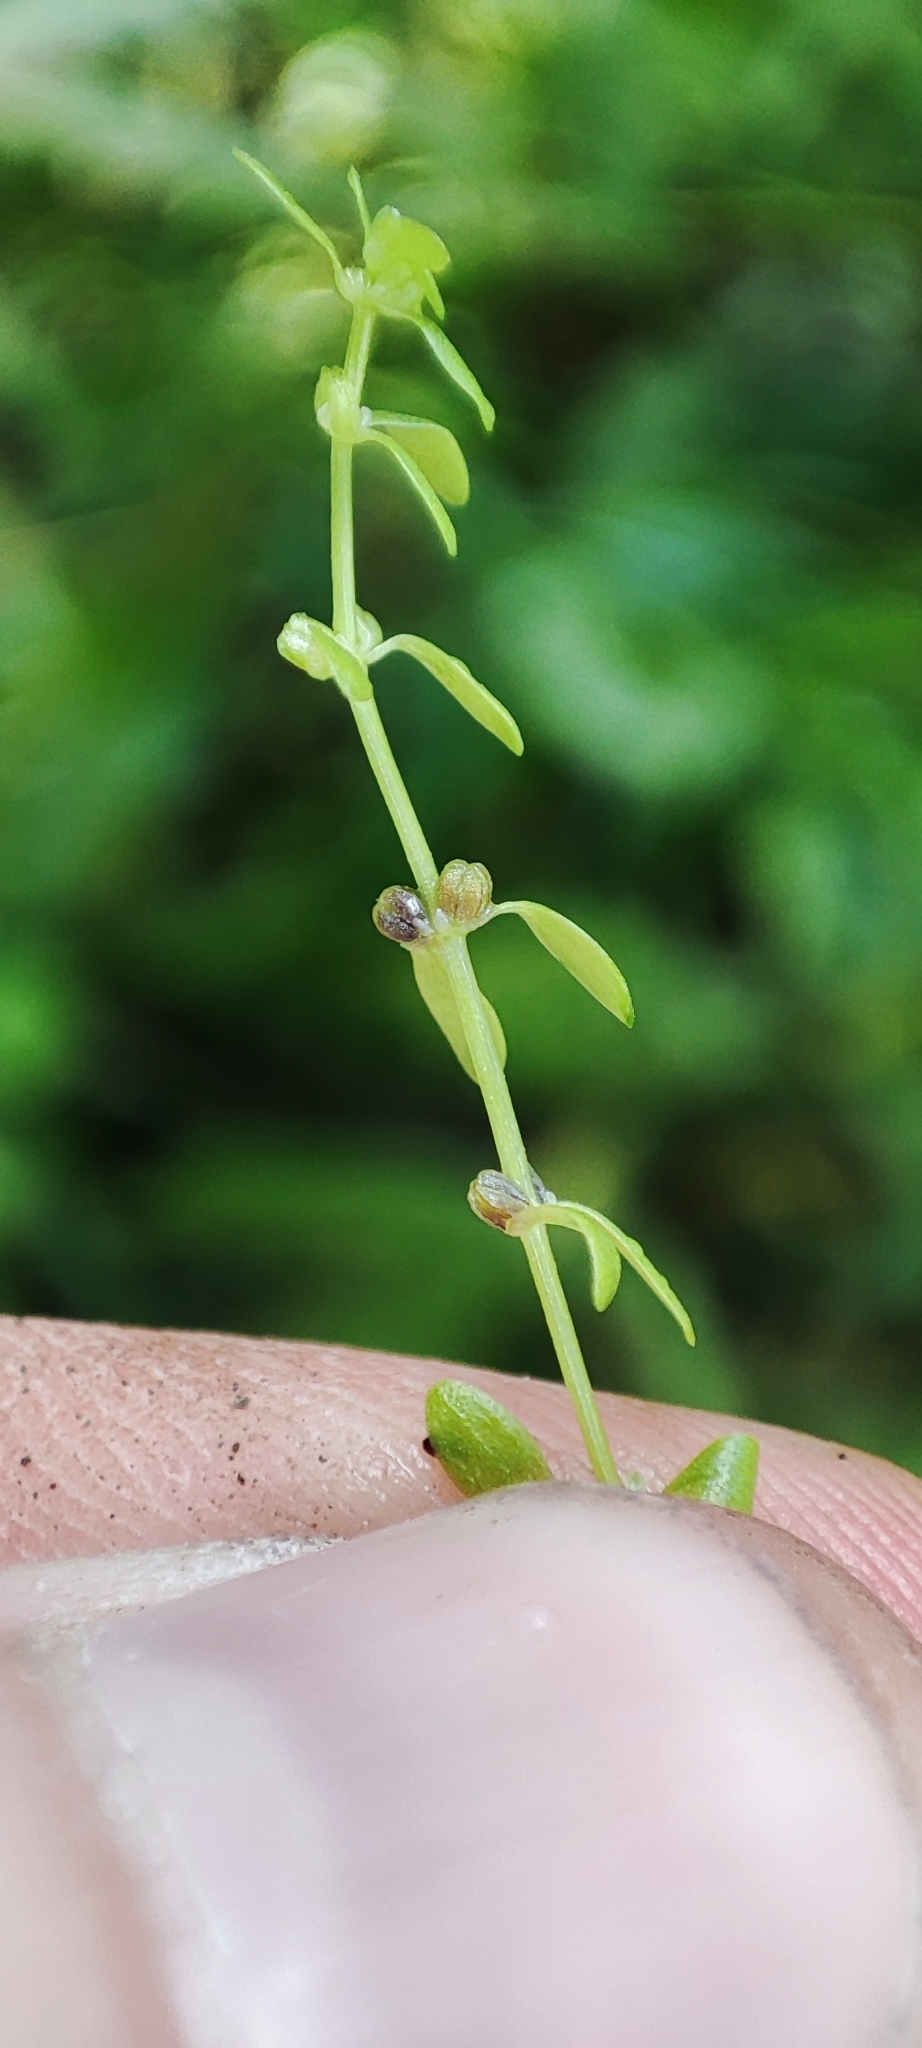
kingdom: Plantae
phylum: Tracheophyta
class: Magnoliopsida
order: Lamiales
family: Plantaginaceae
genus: Callitriche
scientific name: Callitriche palustris
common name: Spring water-starwort
